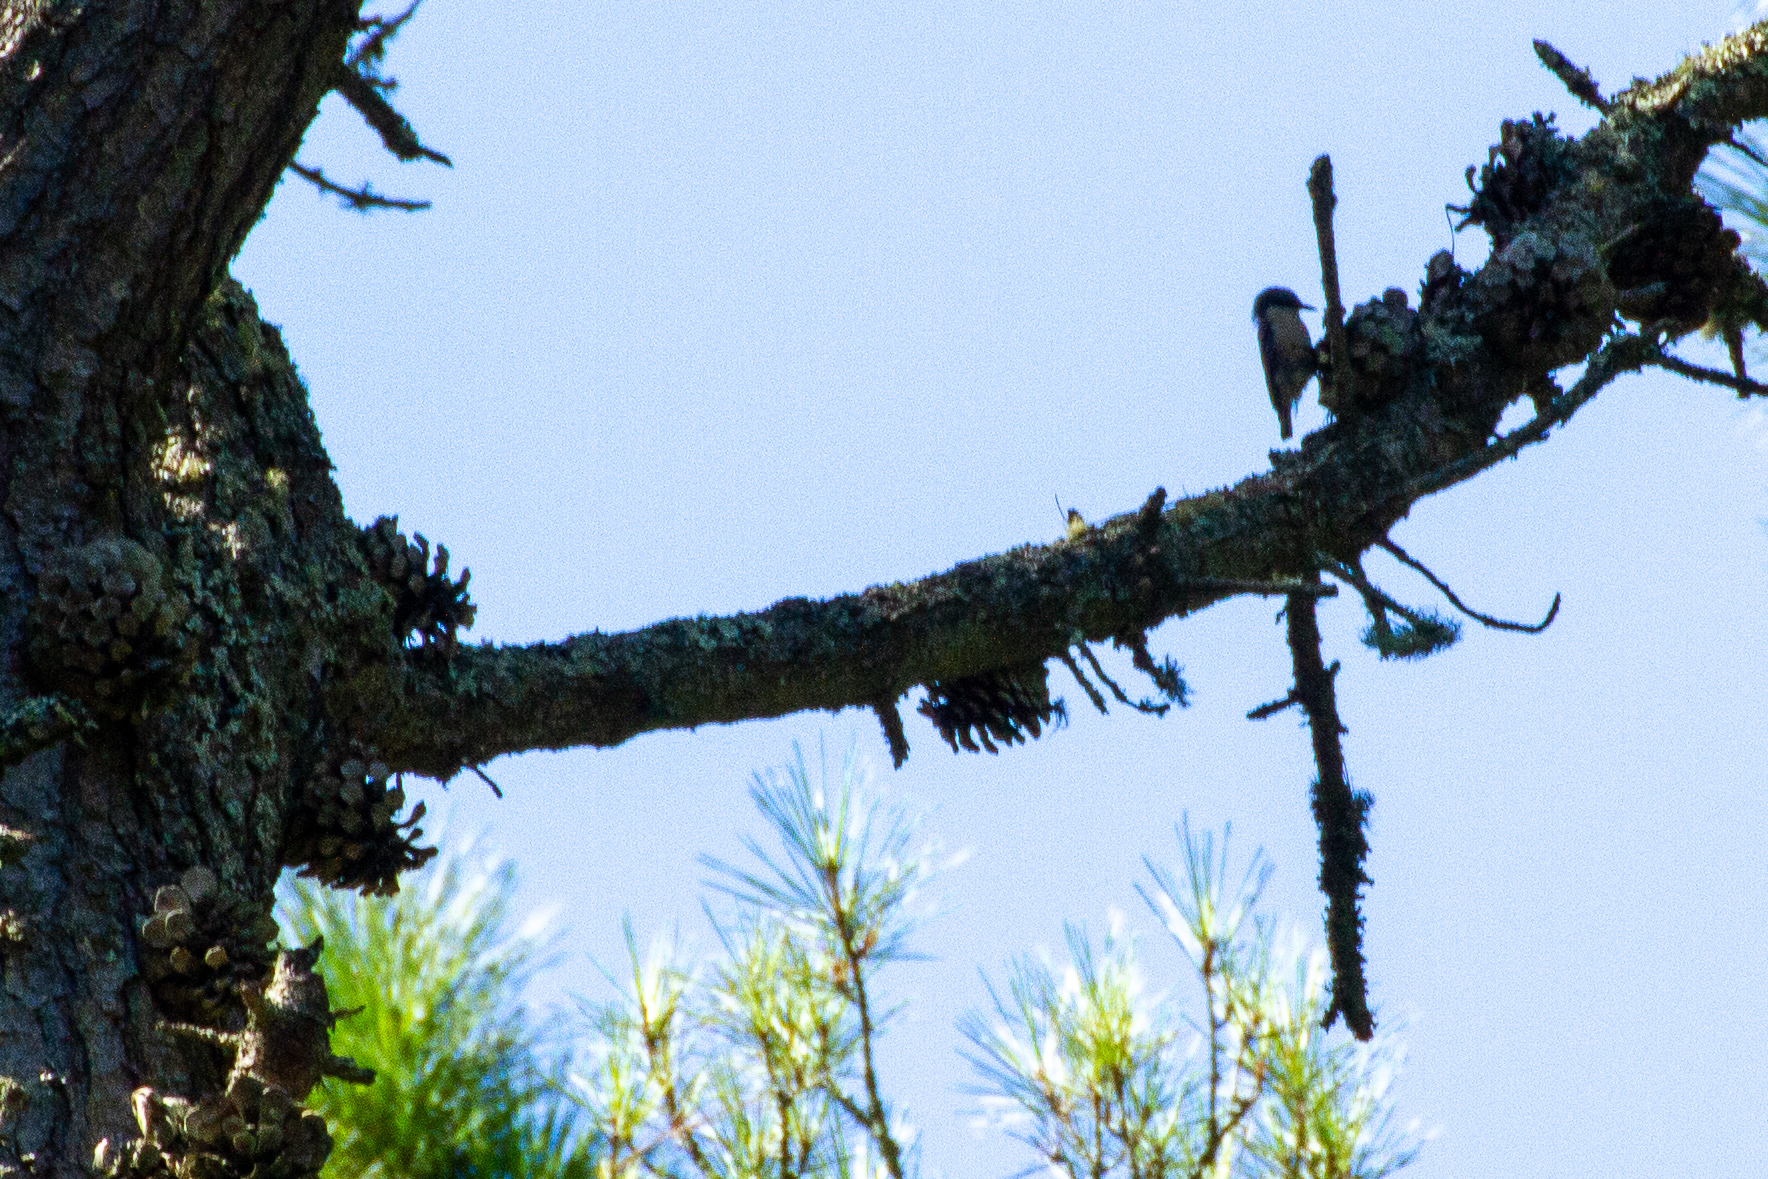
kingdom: Animalia
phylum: Chordata
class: Aves
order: Passeriformes
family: Sittidae
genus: Sitta
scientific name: Sitta pygmaea
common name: Pygmy nuthatch
